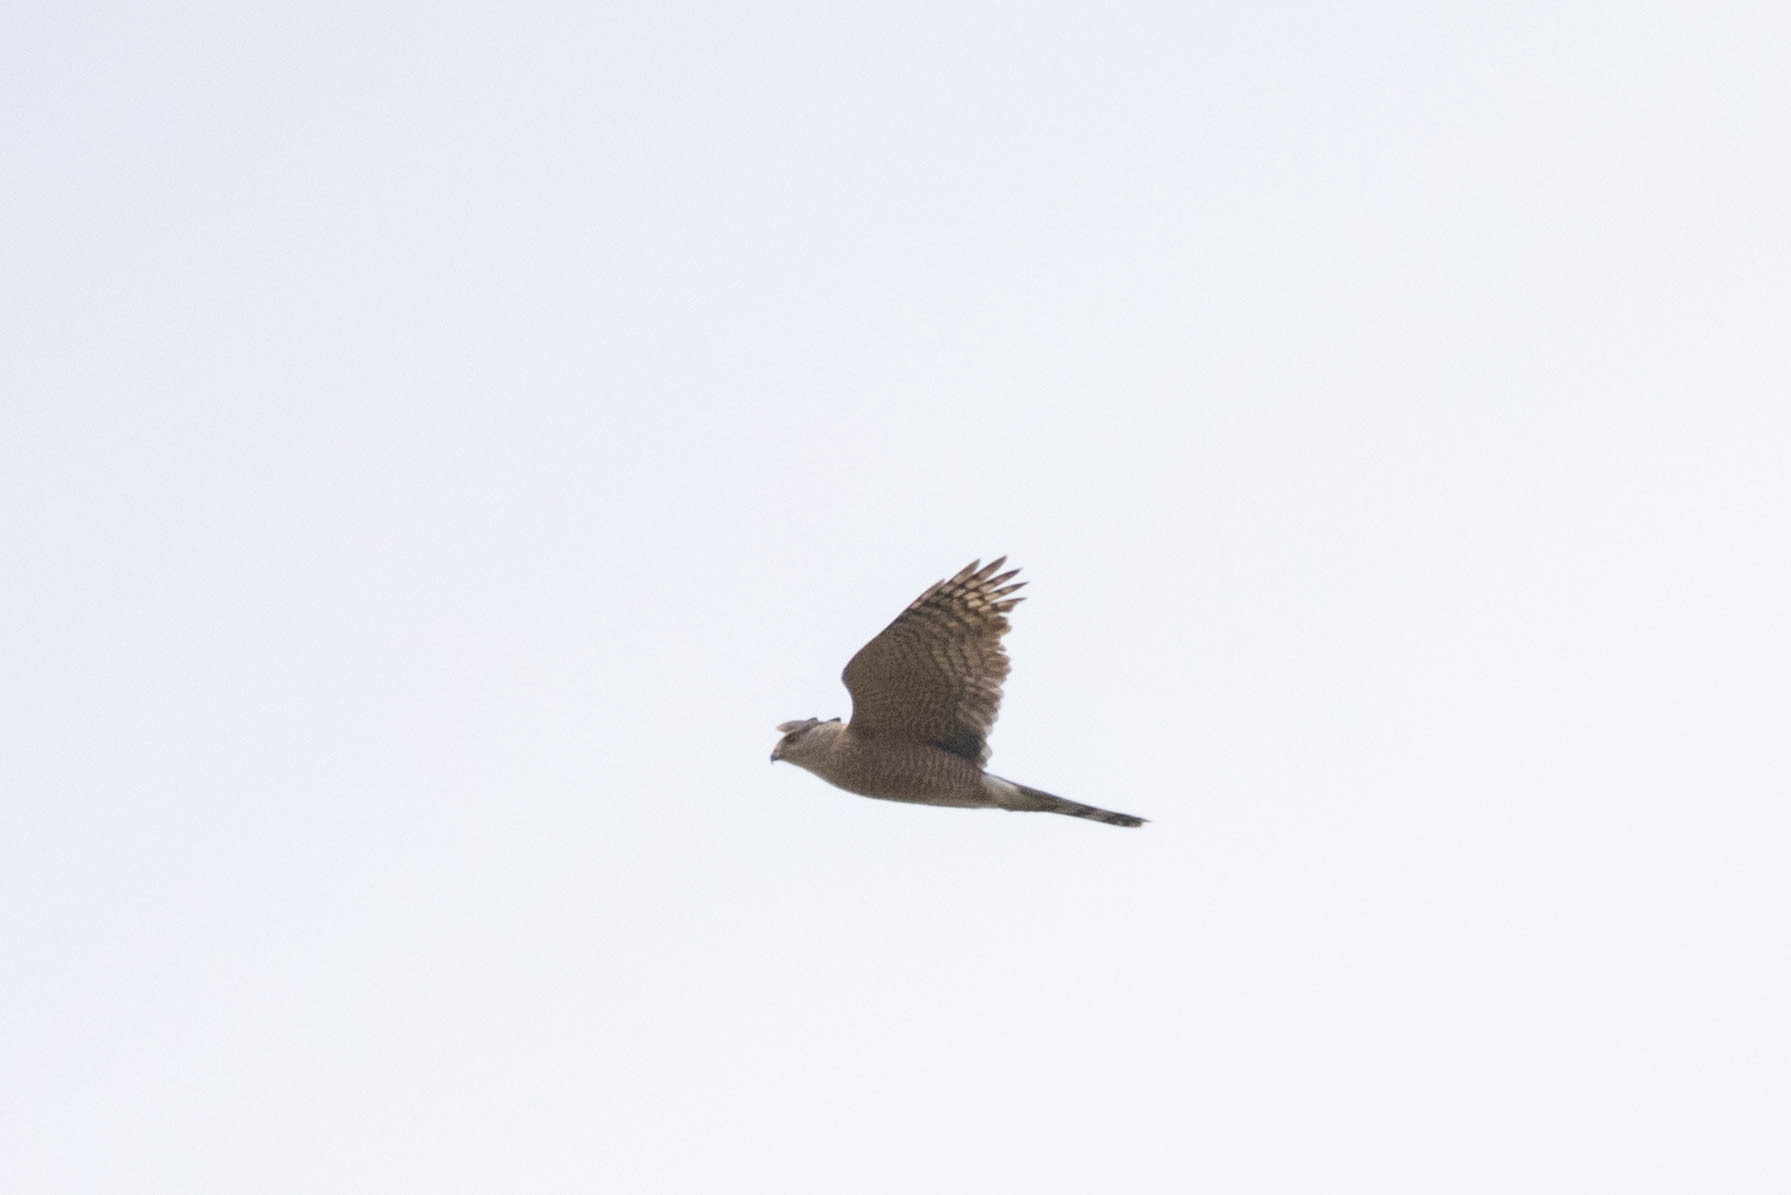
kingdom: Animalia
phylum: Chordata
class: Aves
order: Accipitriformes
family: Accipitridae
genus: Accipiter
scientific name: Accipiter cooperii
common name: Cooper's hawk
